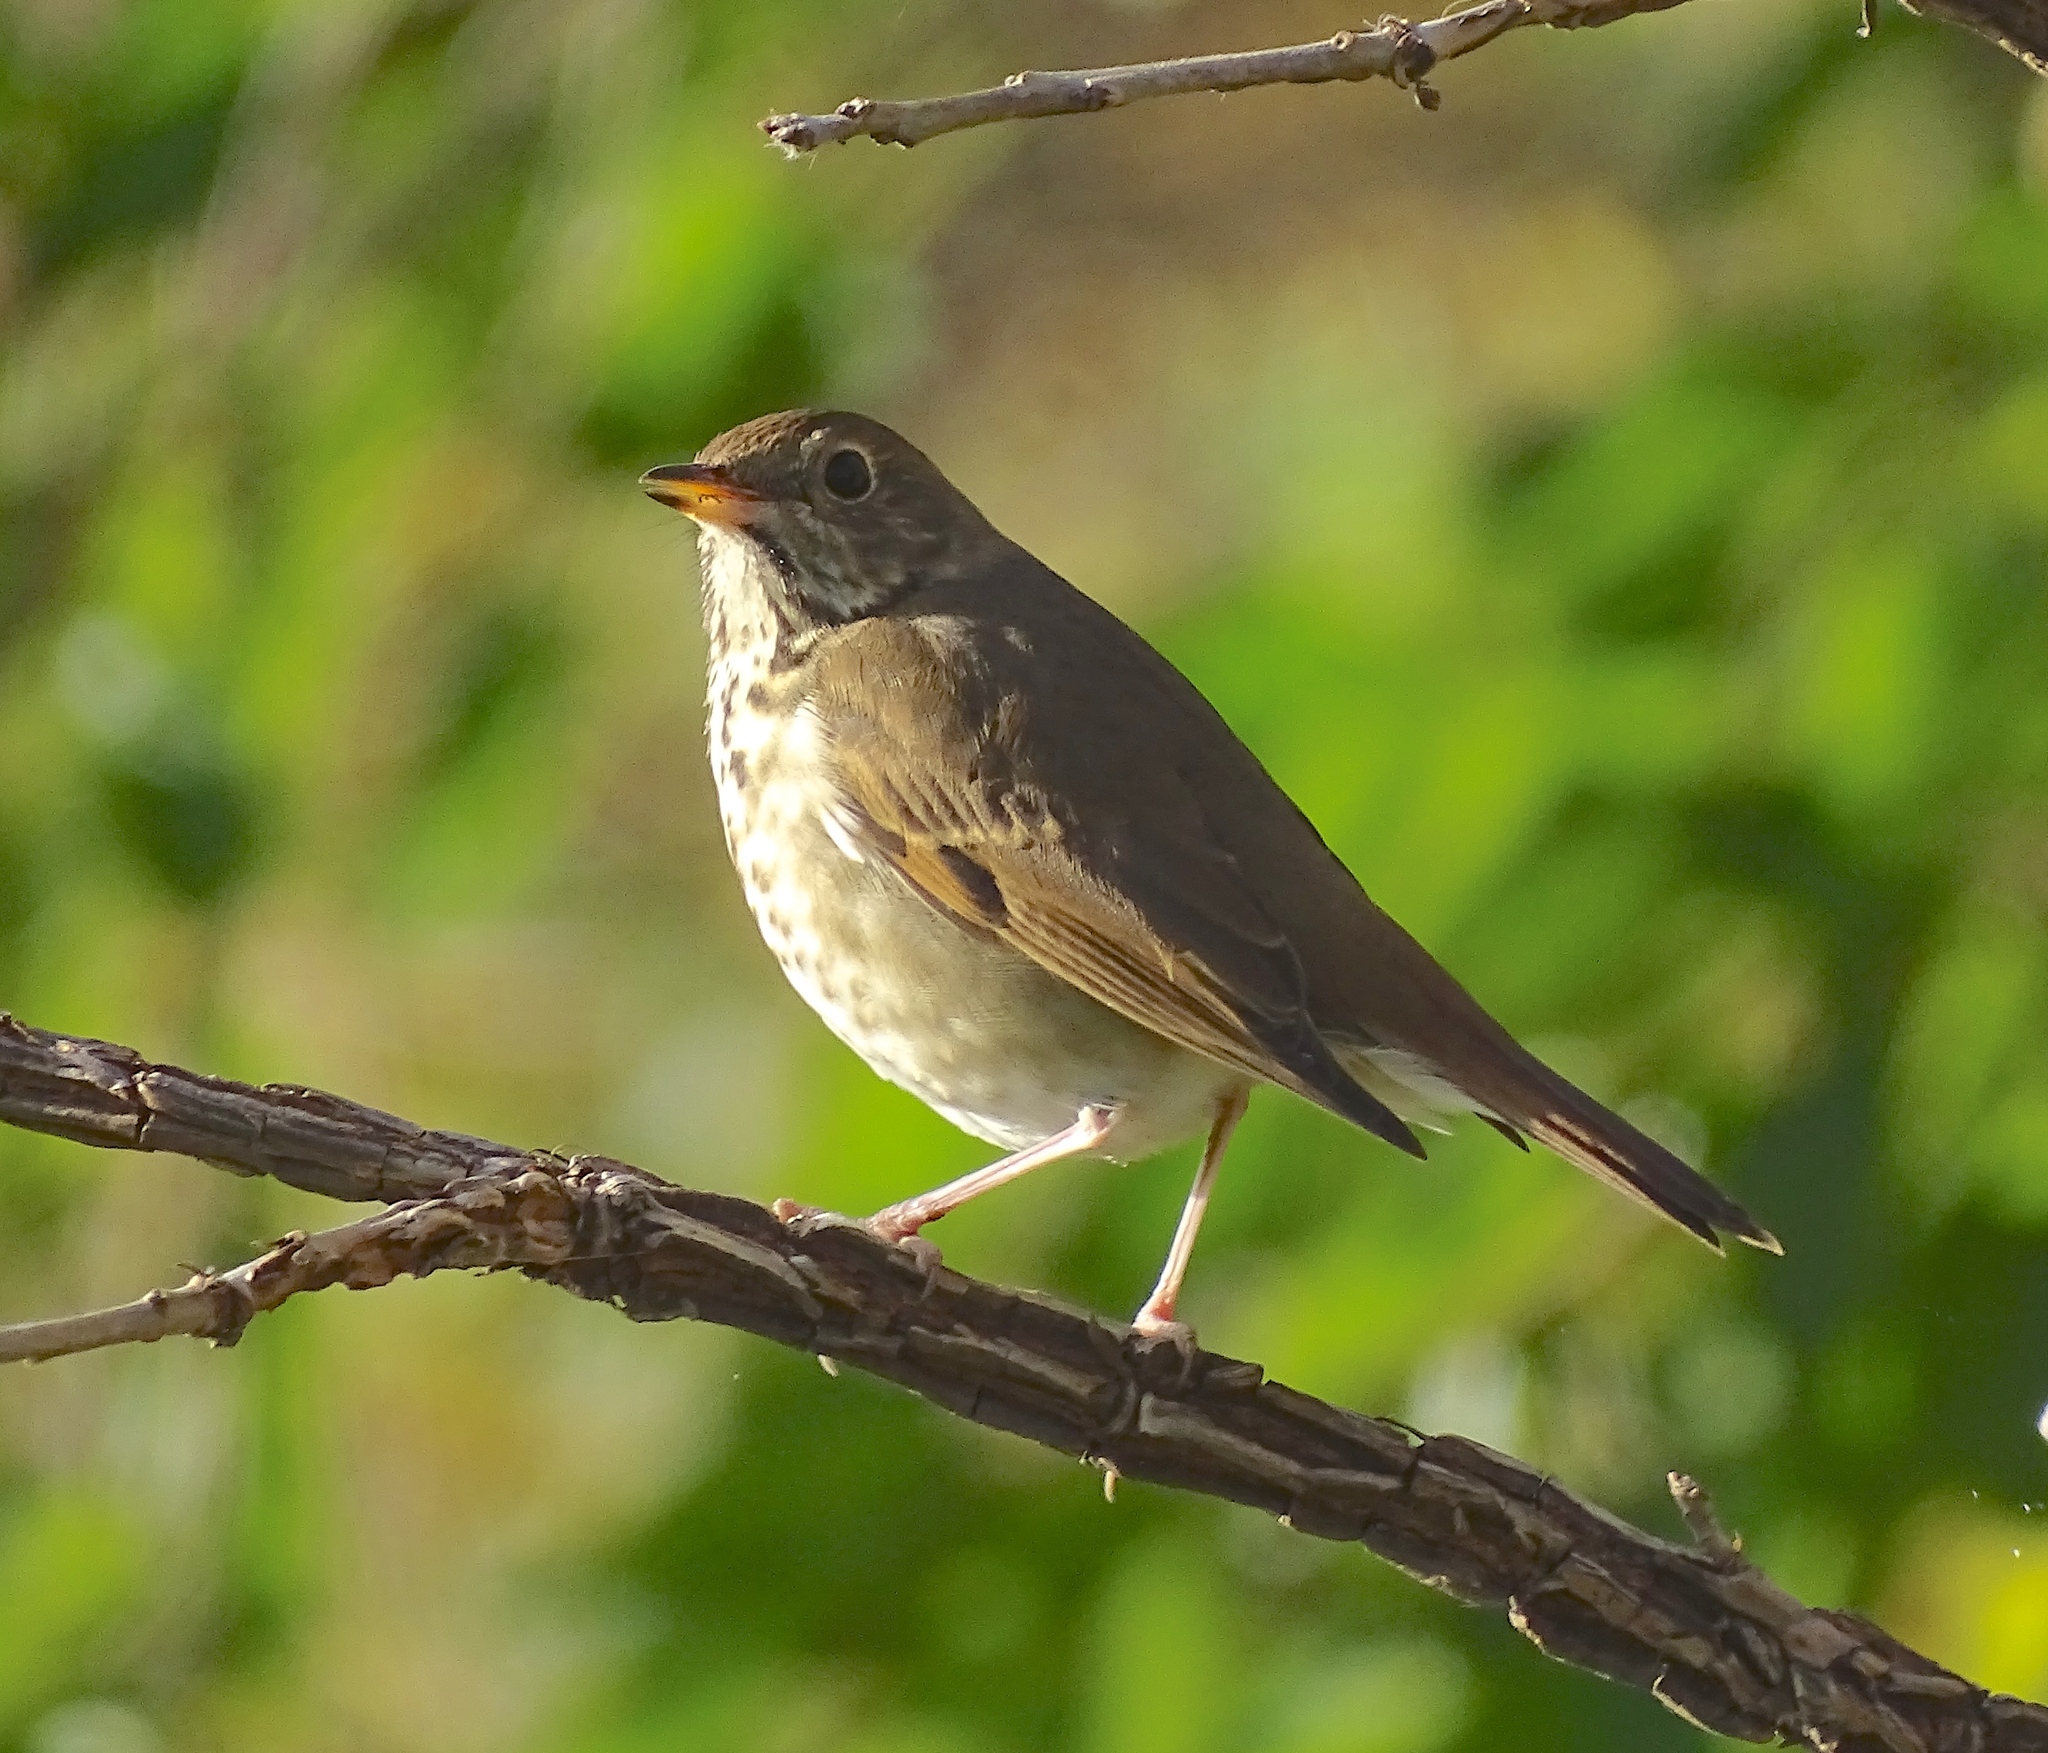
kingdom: Animalia
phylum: Chordata
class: Aves
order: Passeriformes
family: Turdidae
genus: Catharus
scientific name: Catharus guttatus
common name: Hermit thrush
